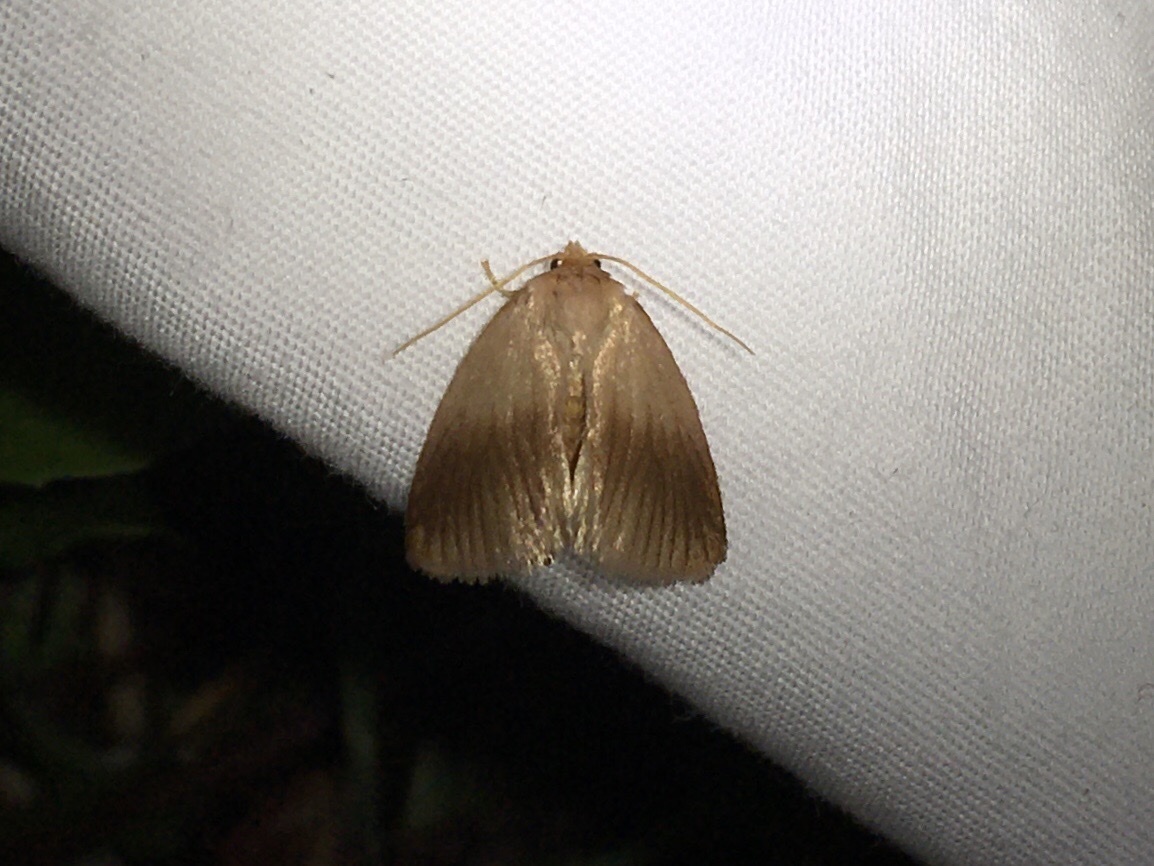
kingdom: Animalia
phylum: Arthropoda
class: Insecta
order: Lepidoptera
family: Limacodidae
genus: Tortricidia
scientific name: Tortricidia testacea
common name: Early button slug moth
